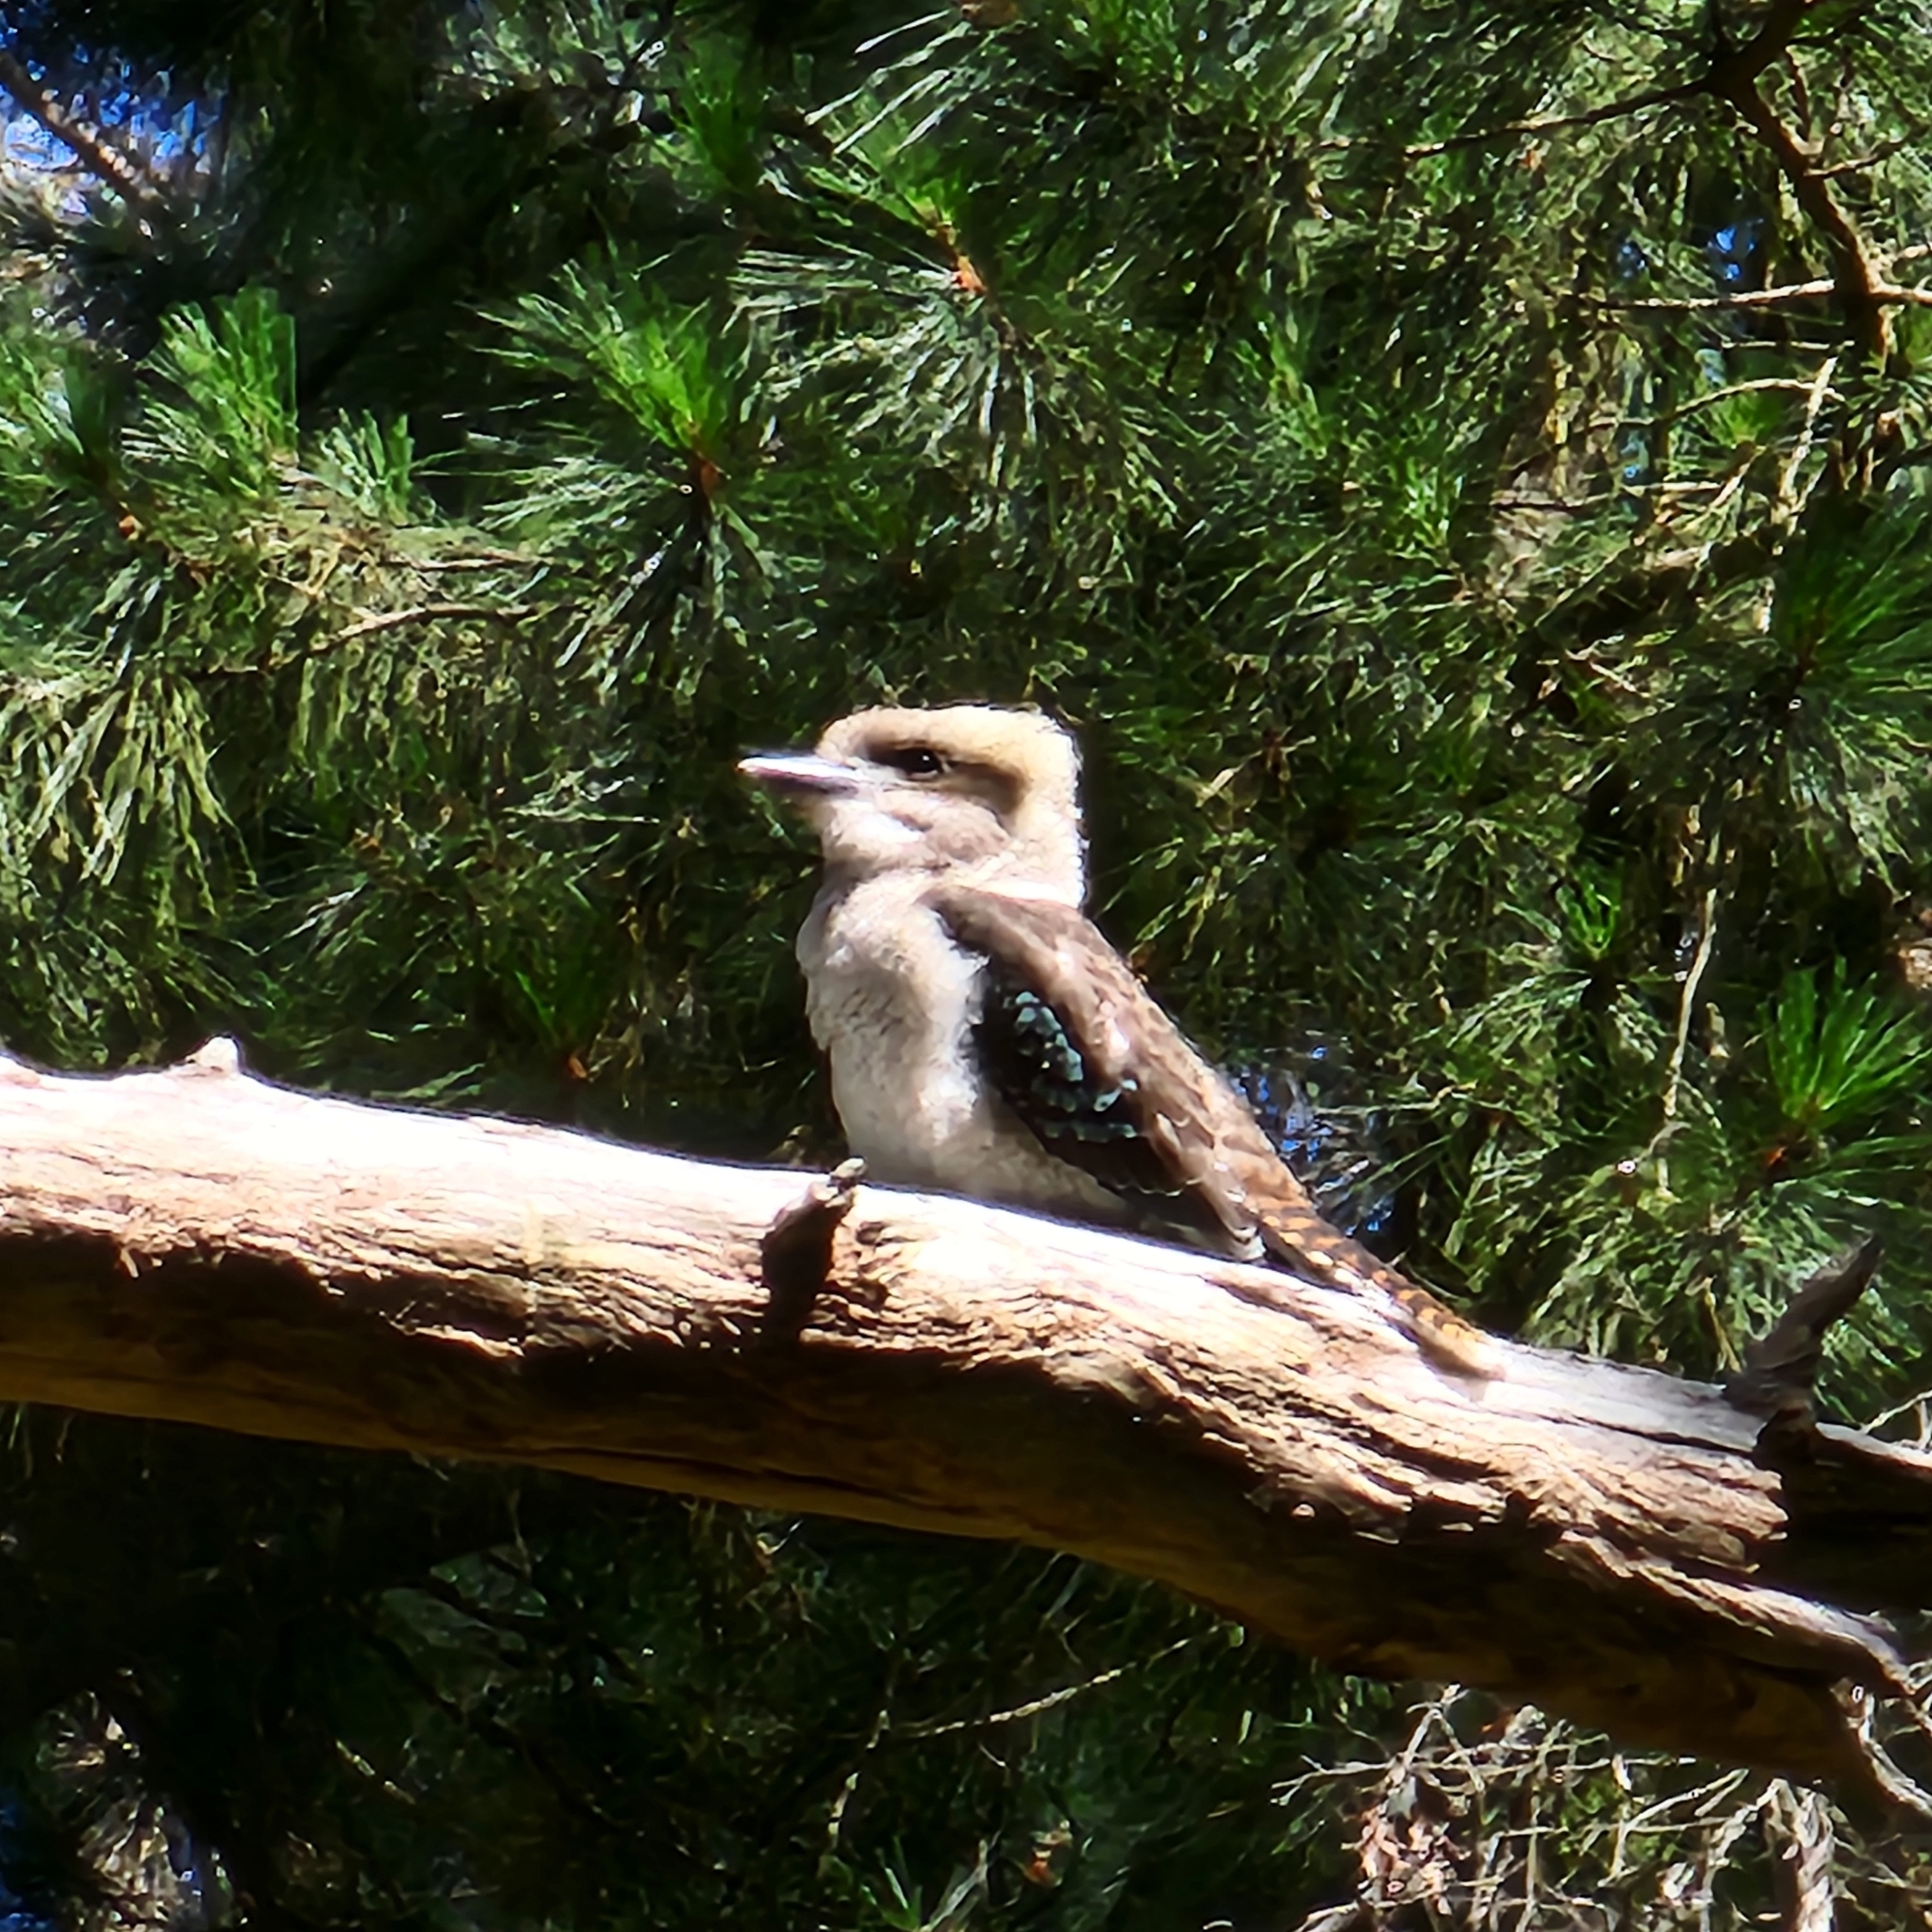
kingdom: Animalia
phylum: Chordata
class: Aves
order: Coraciiformes
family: Alcedinidae
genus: Dacelo
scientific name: Dacelo novaeguineae
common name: Laughing kookaburra
